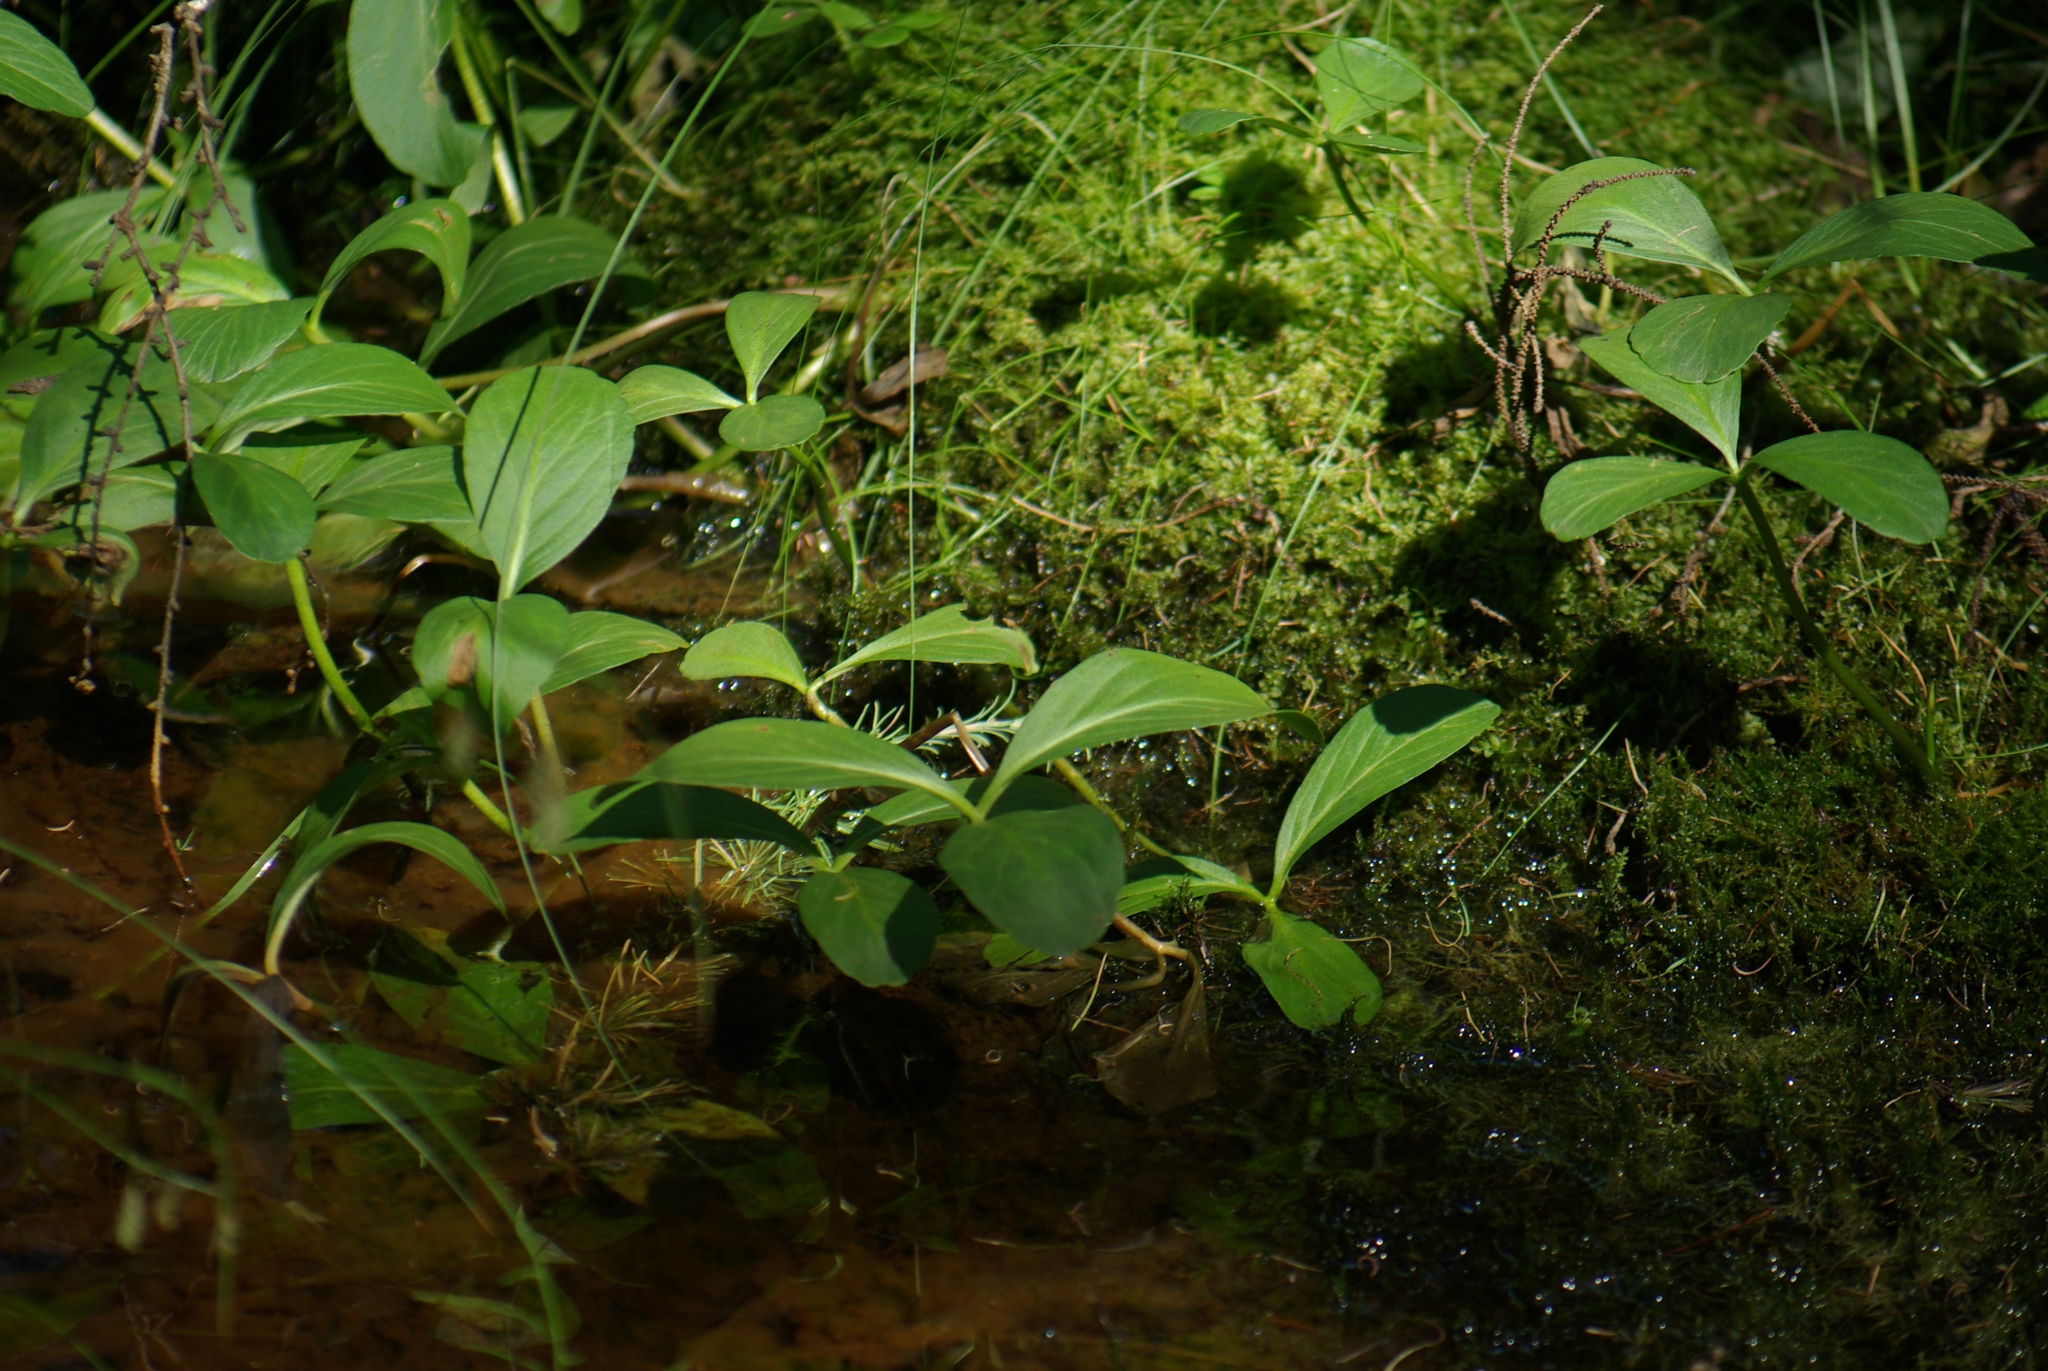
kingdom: Plantae
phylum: Tracheophyta
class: Magnoliopsida
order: Asterales
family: Menyanthaceae
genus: Menyanthes
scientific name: Menyanthes trifoliata
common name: Bogbean
